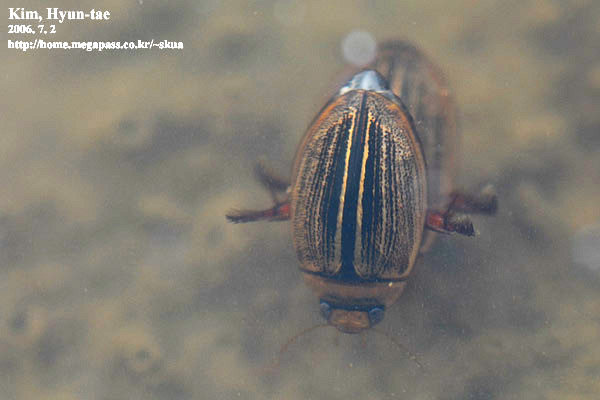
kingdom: Animalia
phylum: Arthropoda
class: Insecta
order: Coleoptera
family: Dytiscidae
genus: Hydaticus
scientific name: Hydaticus grammicus
